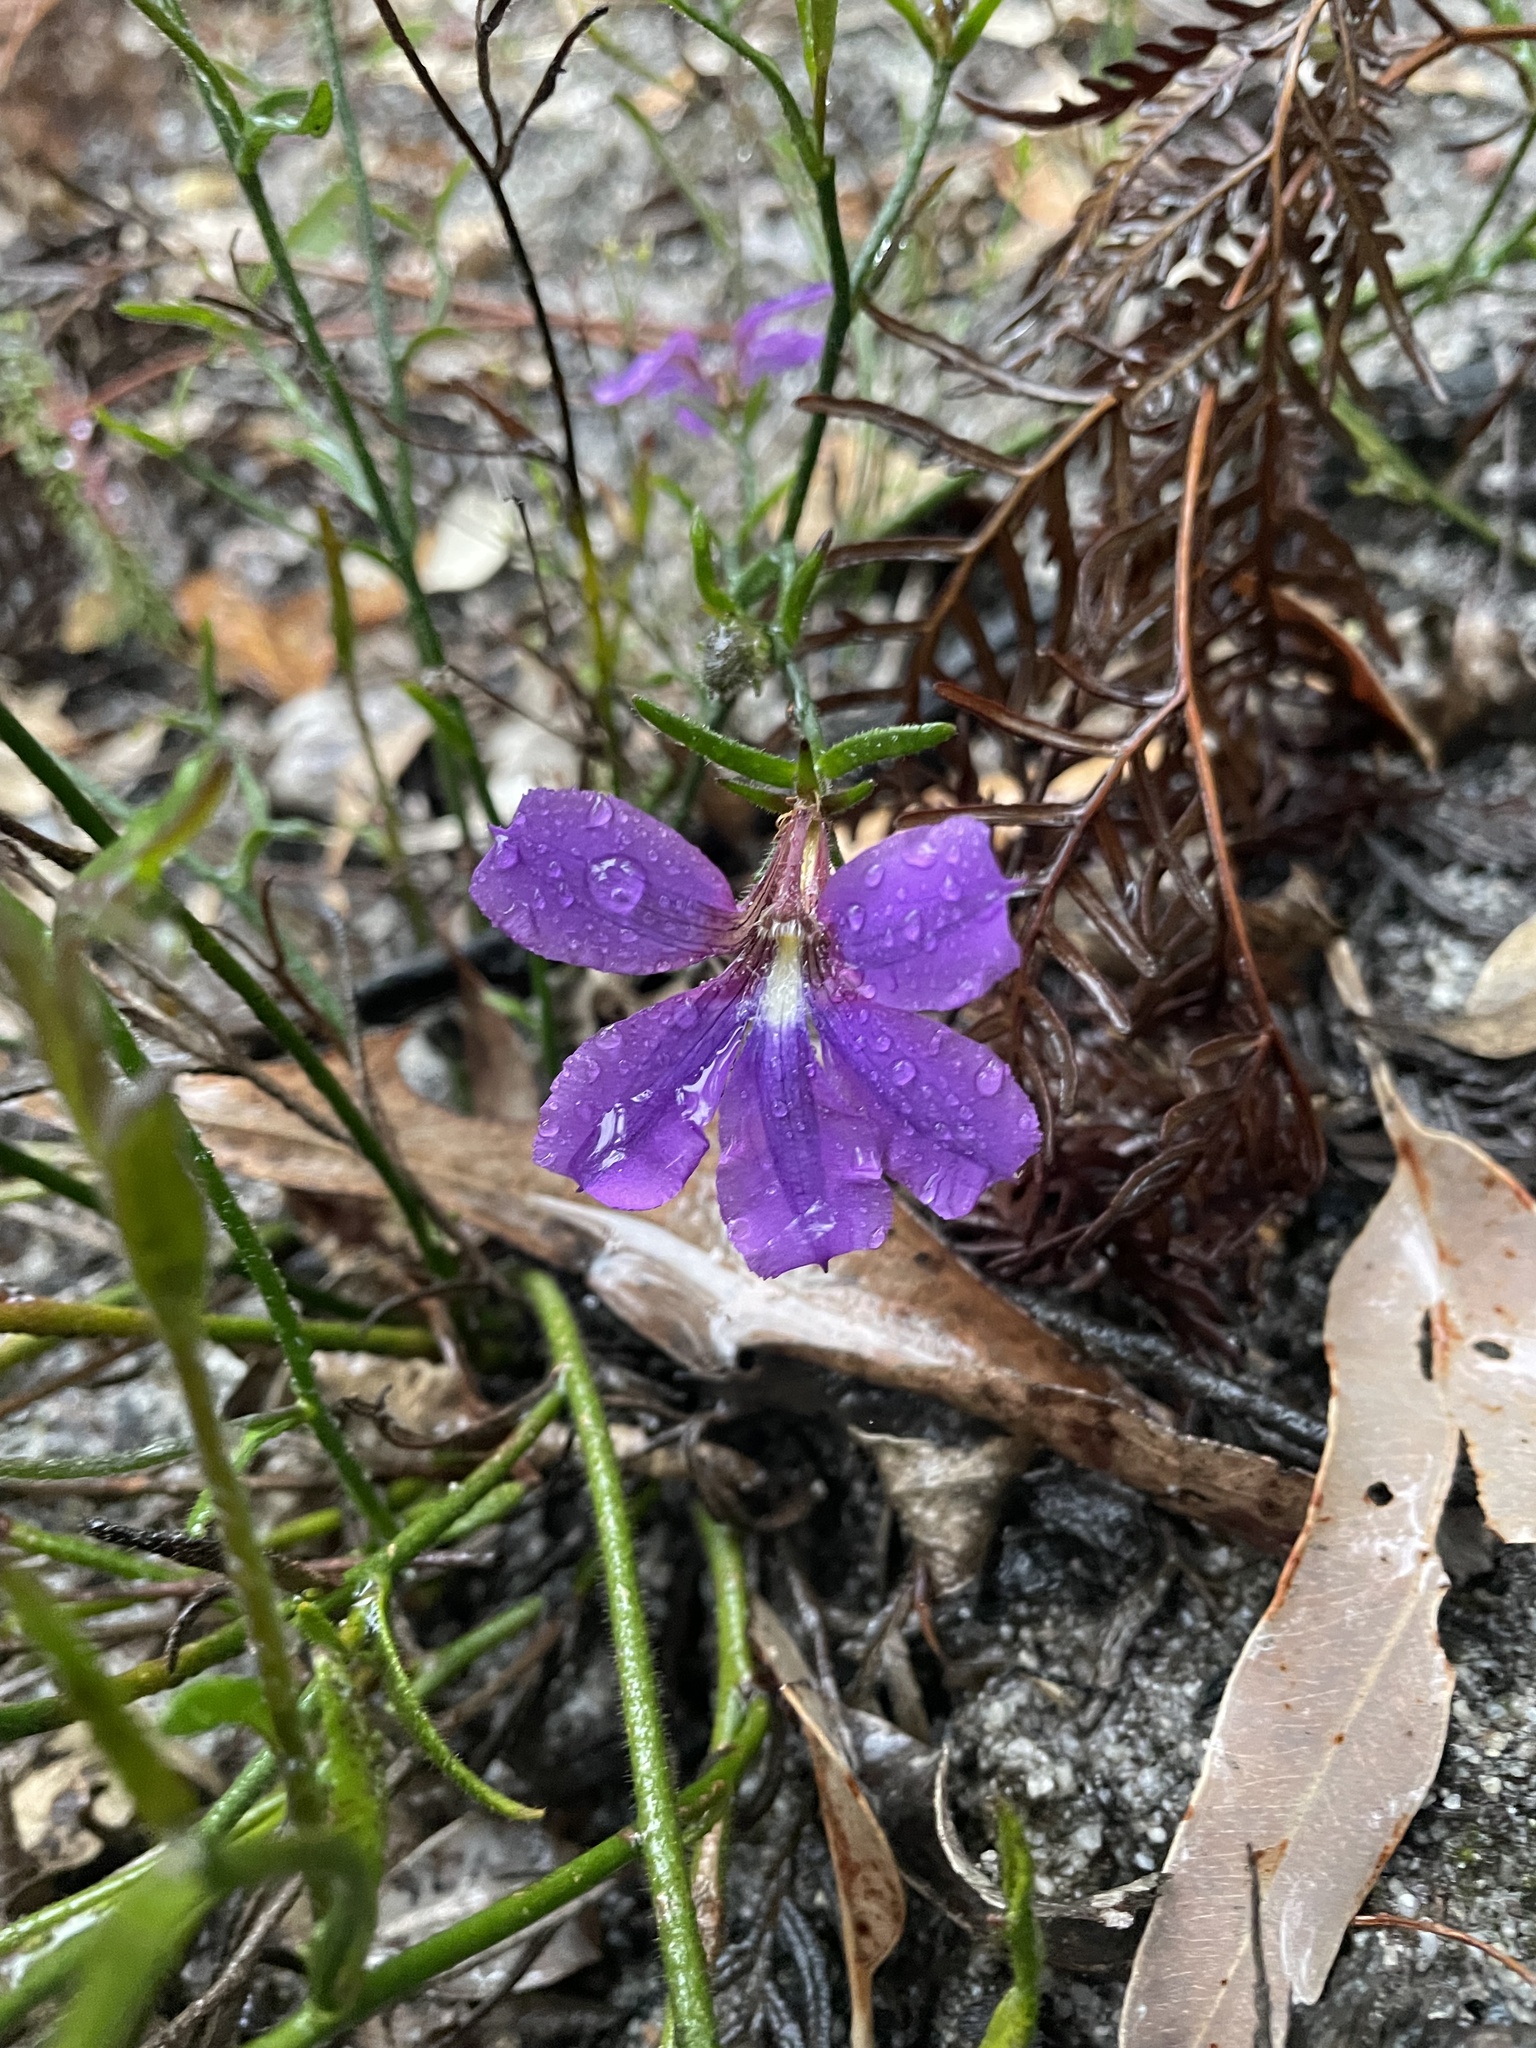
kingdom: Plantae
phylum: Tracheophyta
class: Magnoliopsida
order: Asterales
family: Goodeniaceae
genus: Scaevola
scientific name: Scaevola ramosissima
